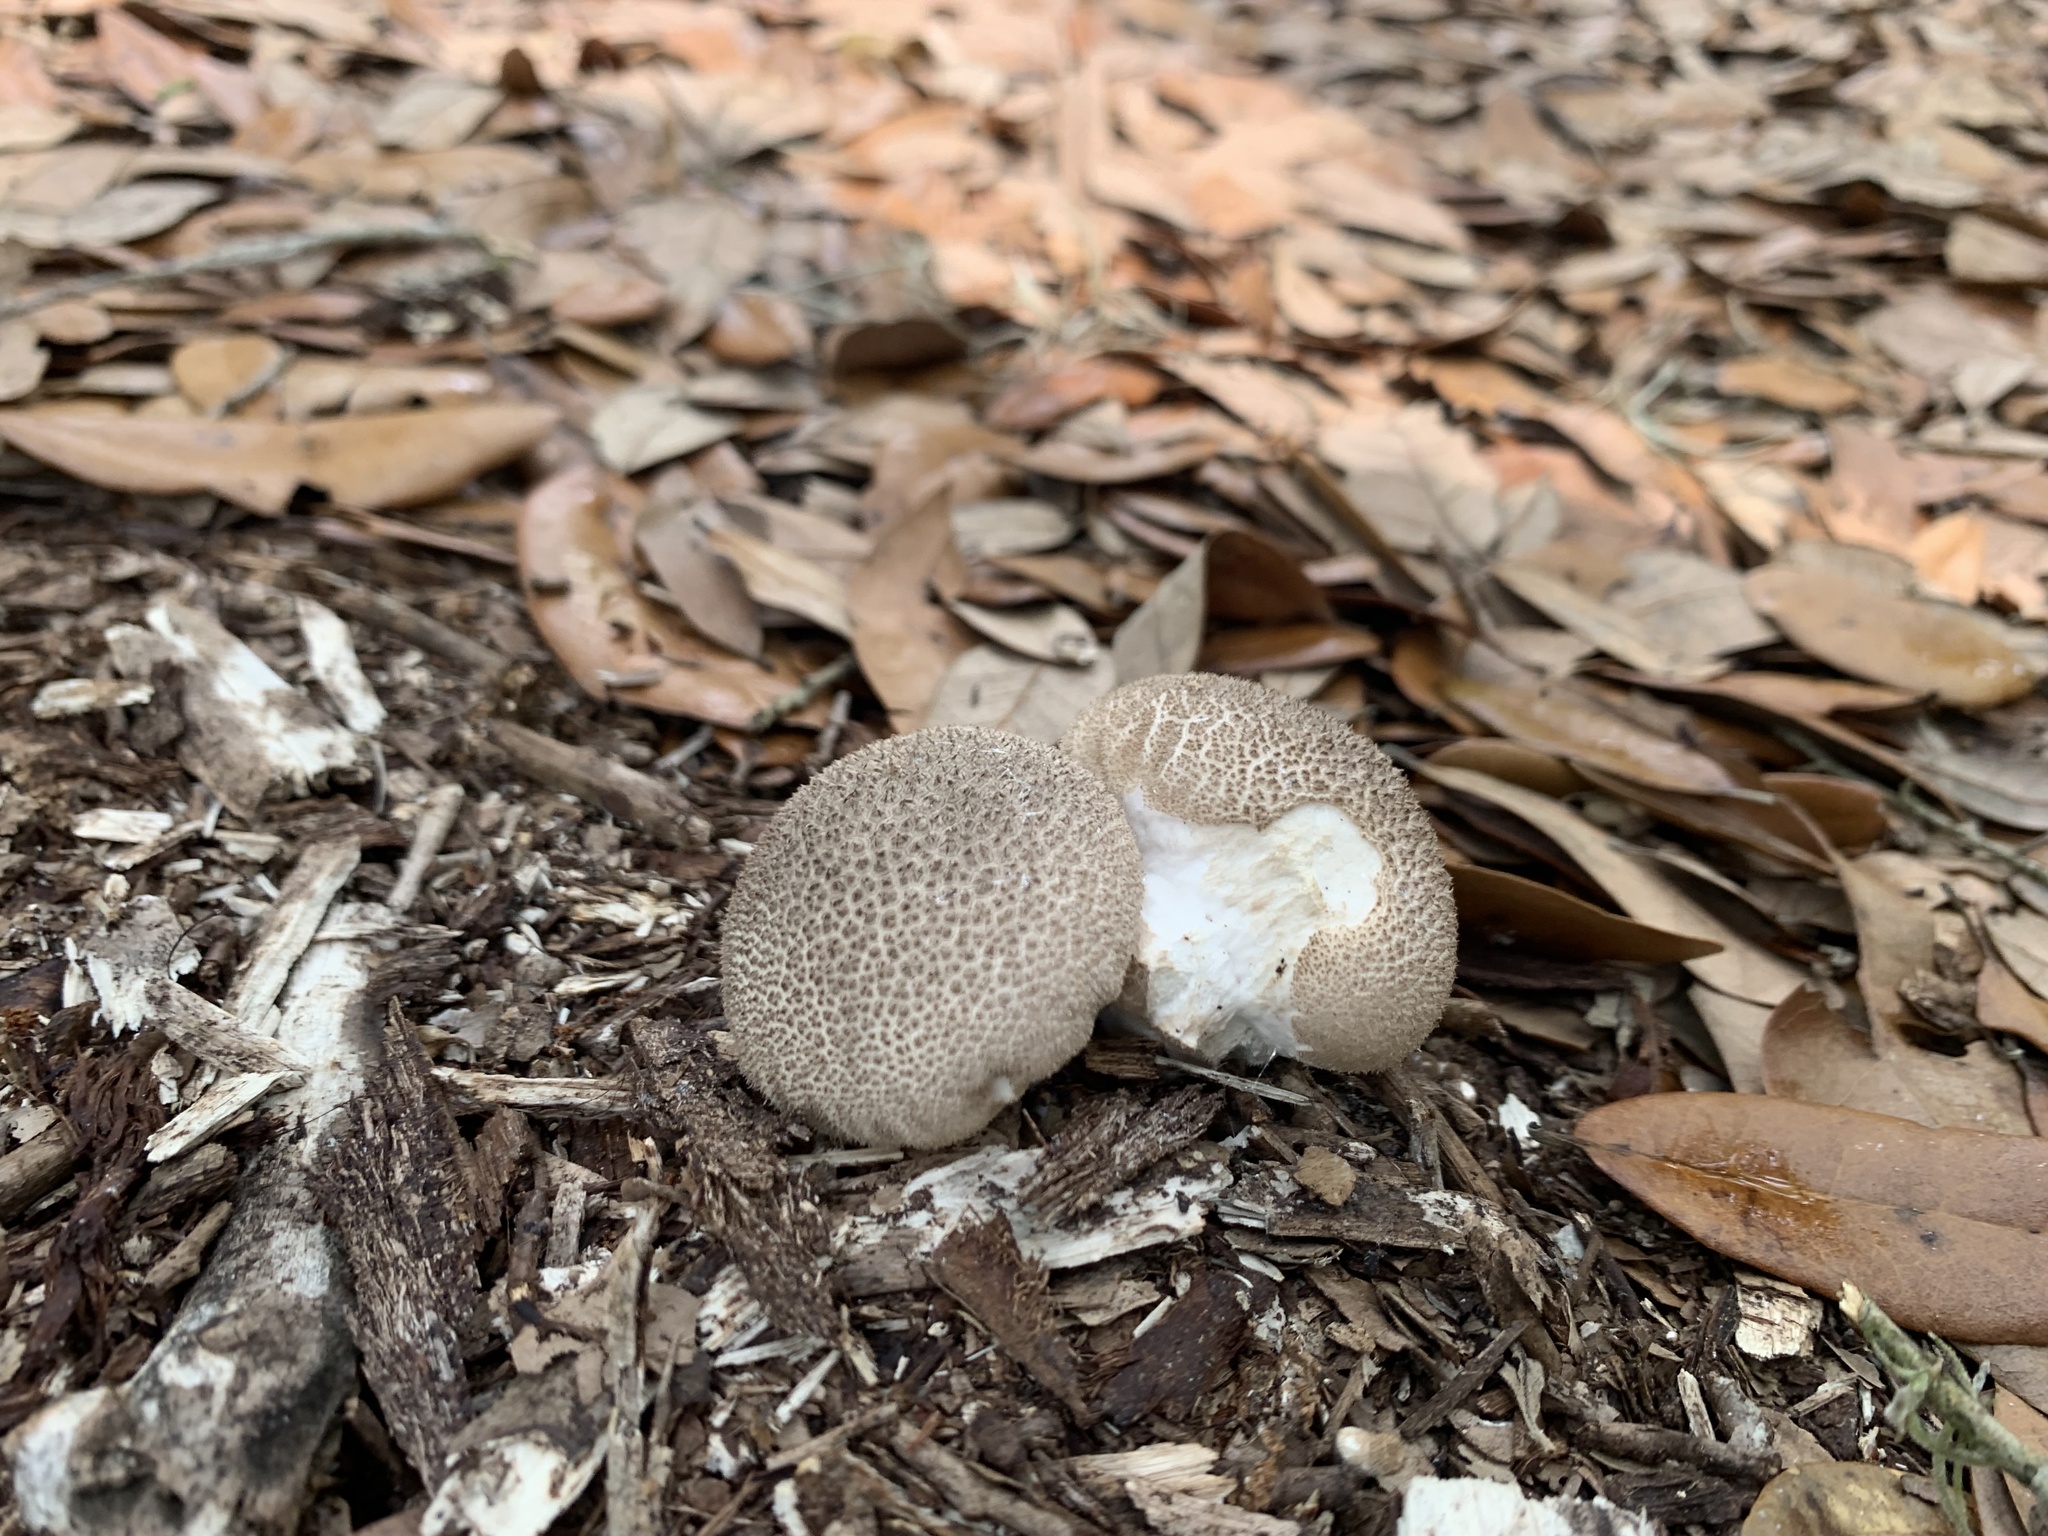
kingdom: Fungi
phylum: Basidiomycota
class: Agaricomycetes
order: Agaricales
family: Agaricaceae
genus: Lycoperdon
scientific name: Lycoperdon marginatum
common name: Peeling puffball
